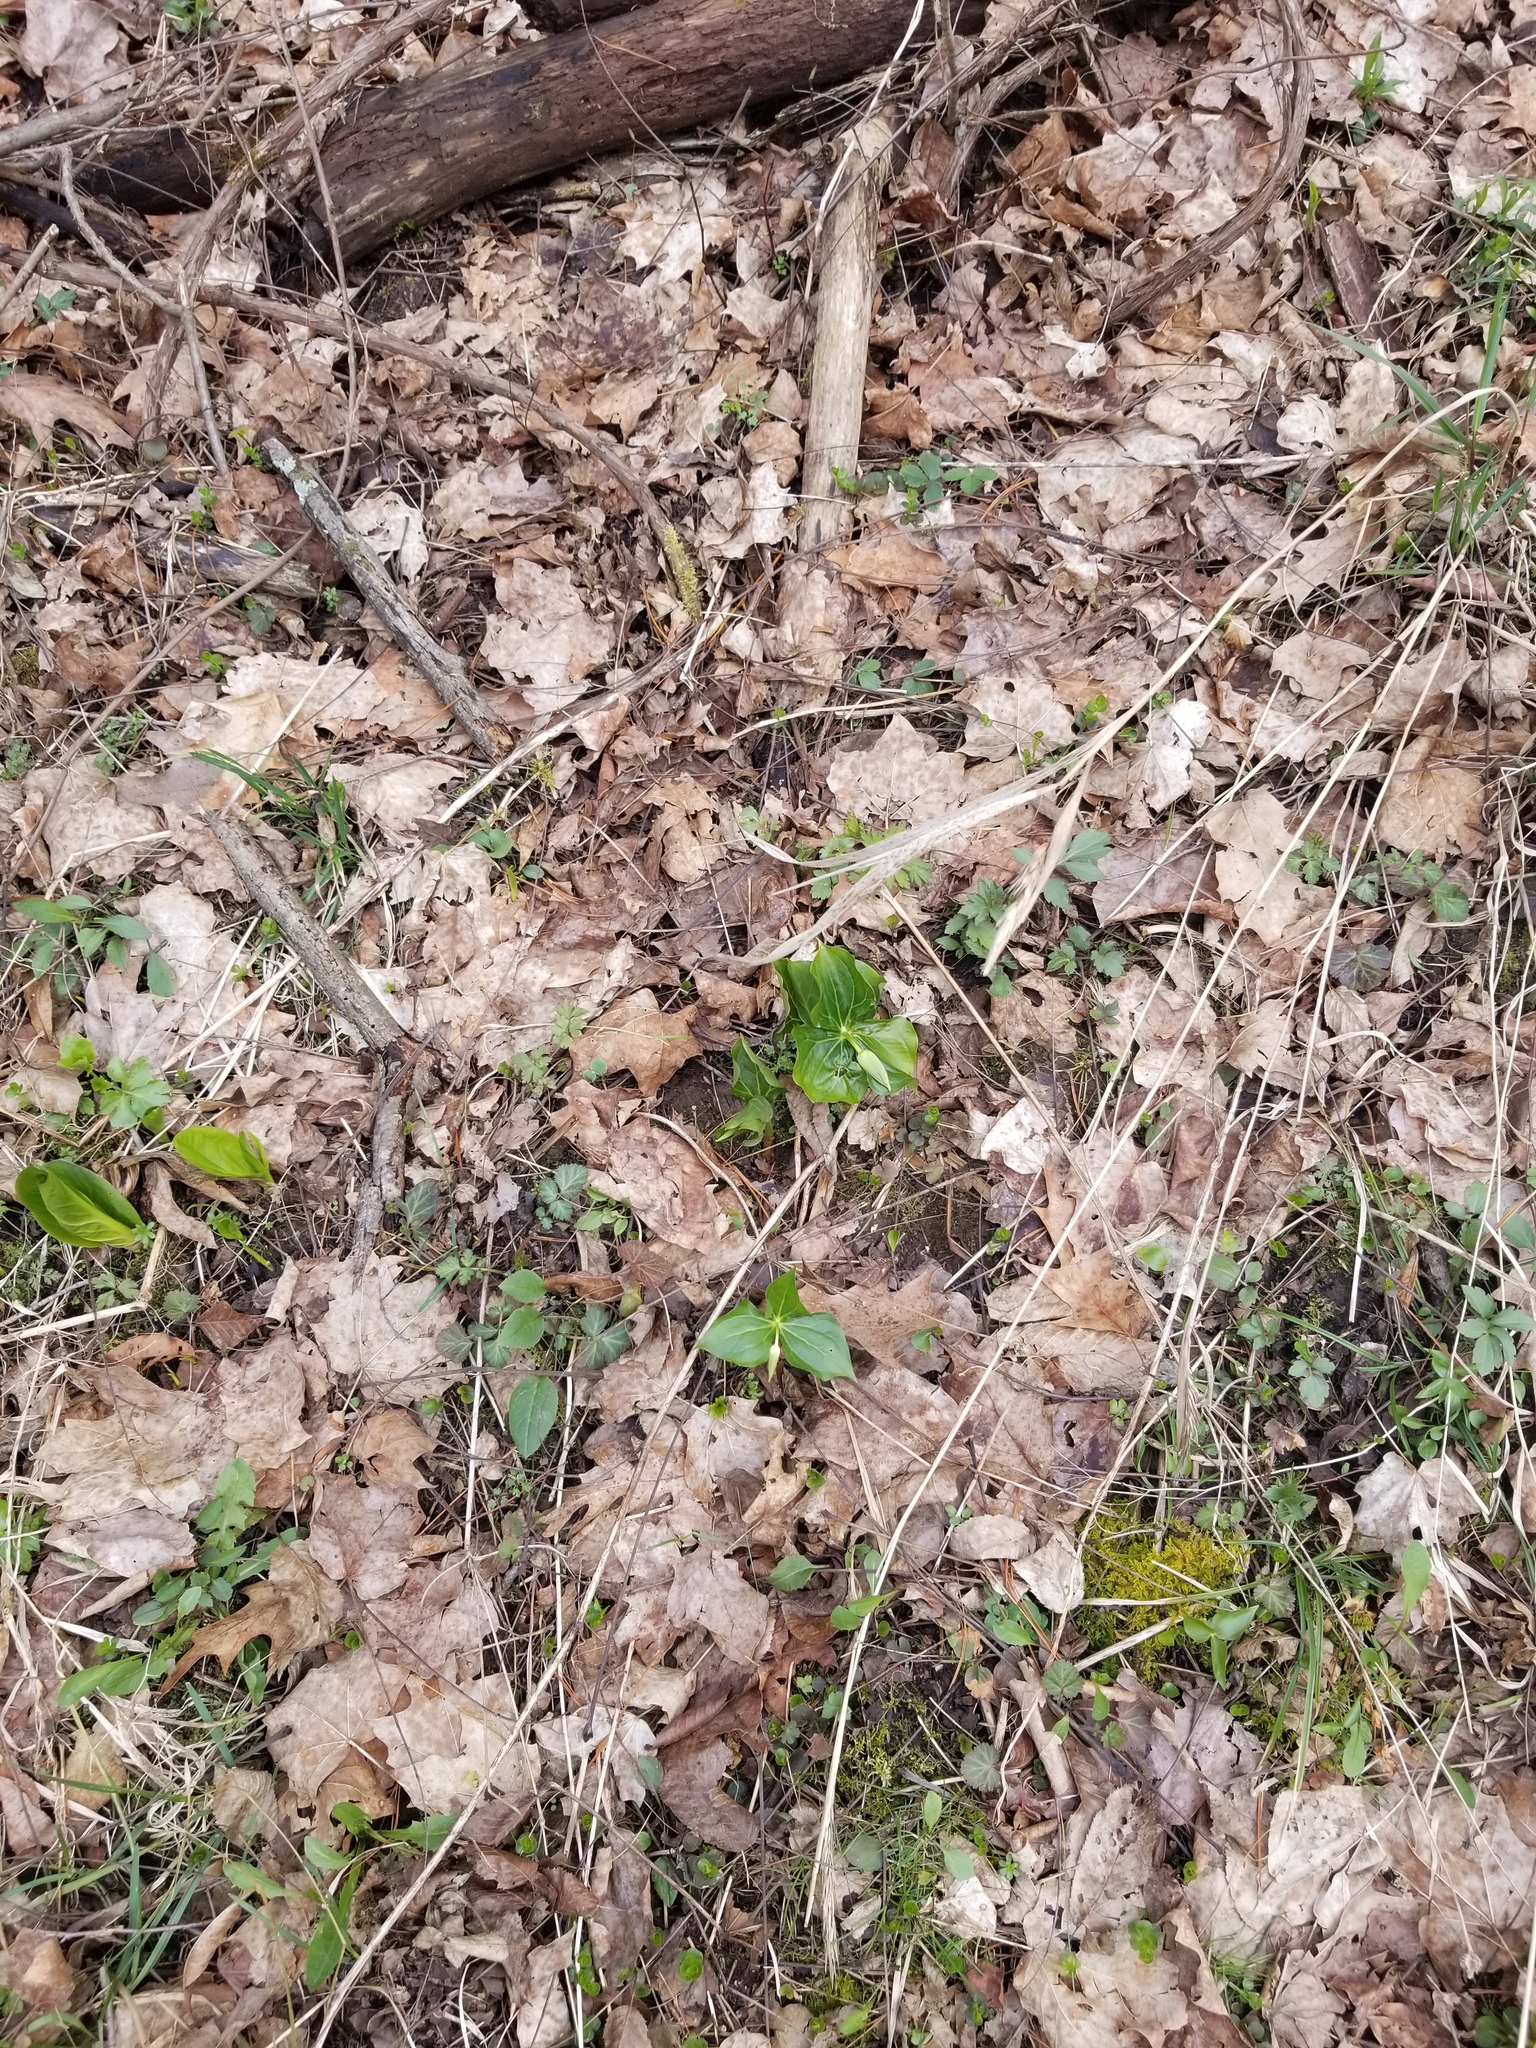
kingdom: Plantae
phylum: Tracheophyta
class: Liliopsida
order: Liliales
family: Melanthiaceae
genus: Trillium
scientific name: Trillium erectum
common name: Purple trillium
